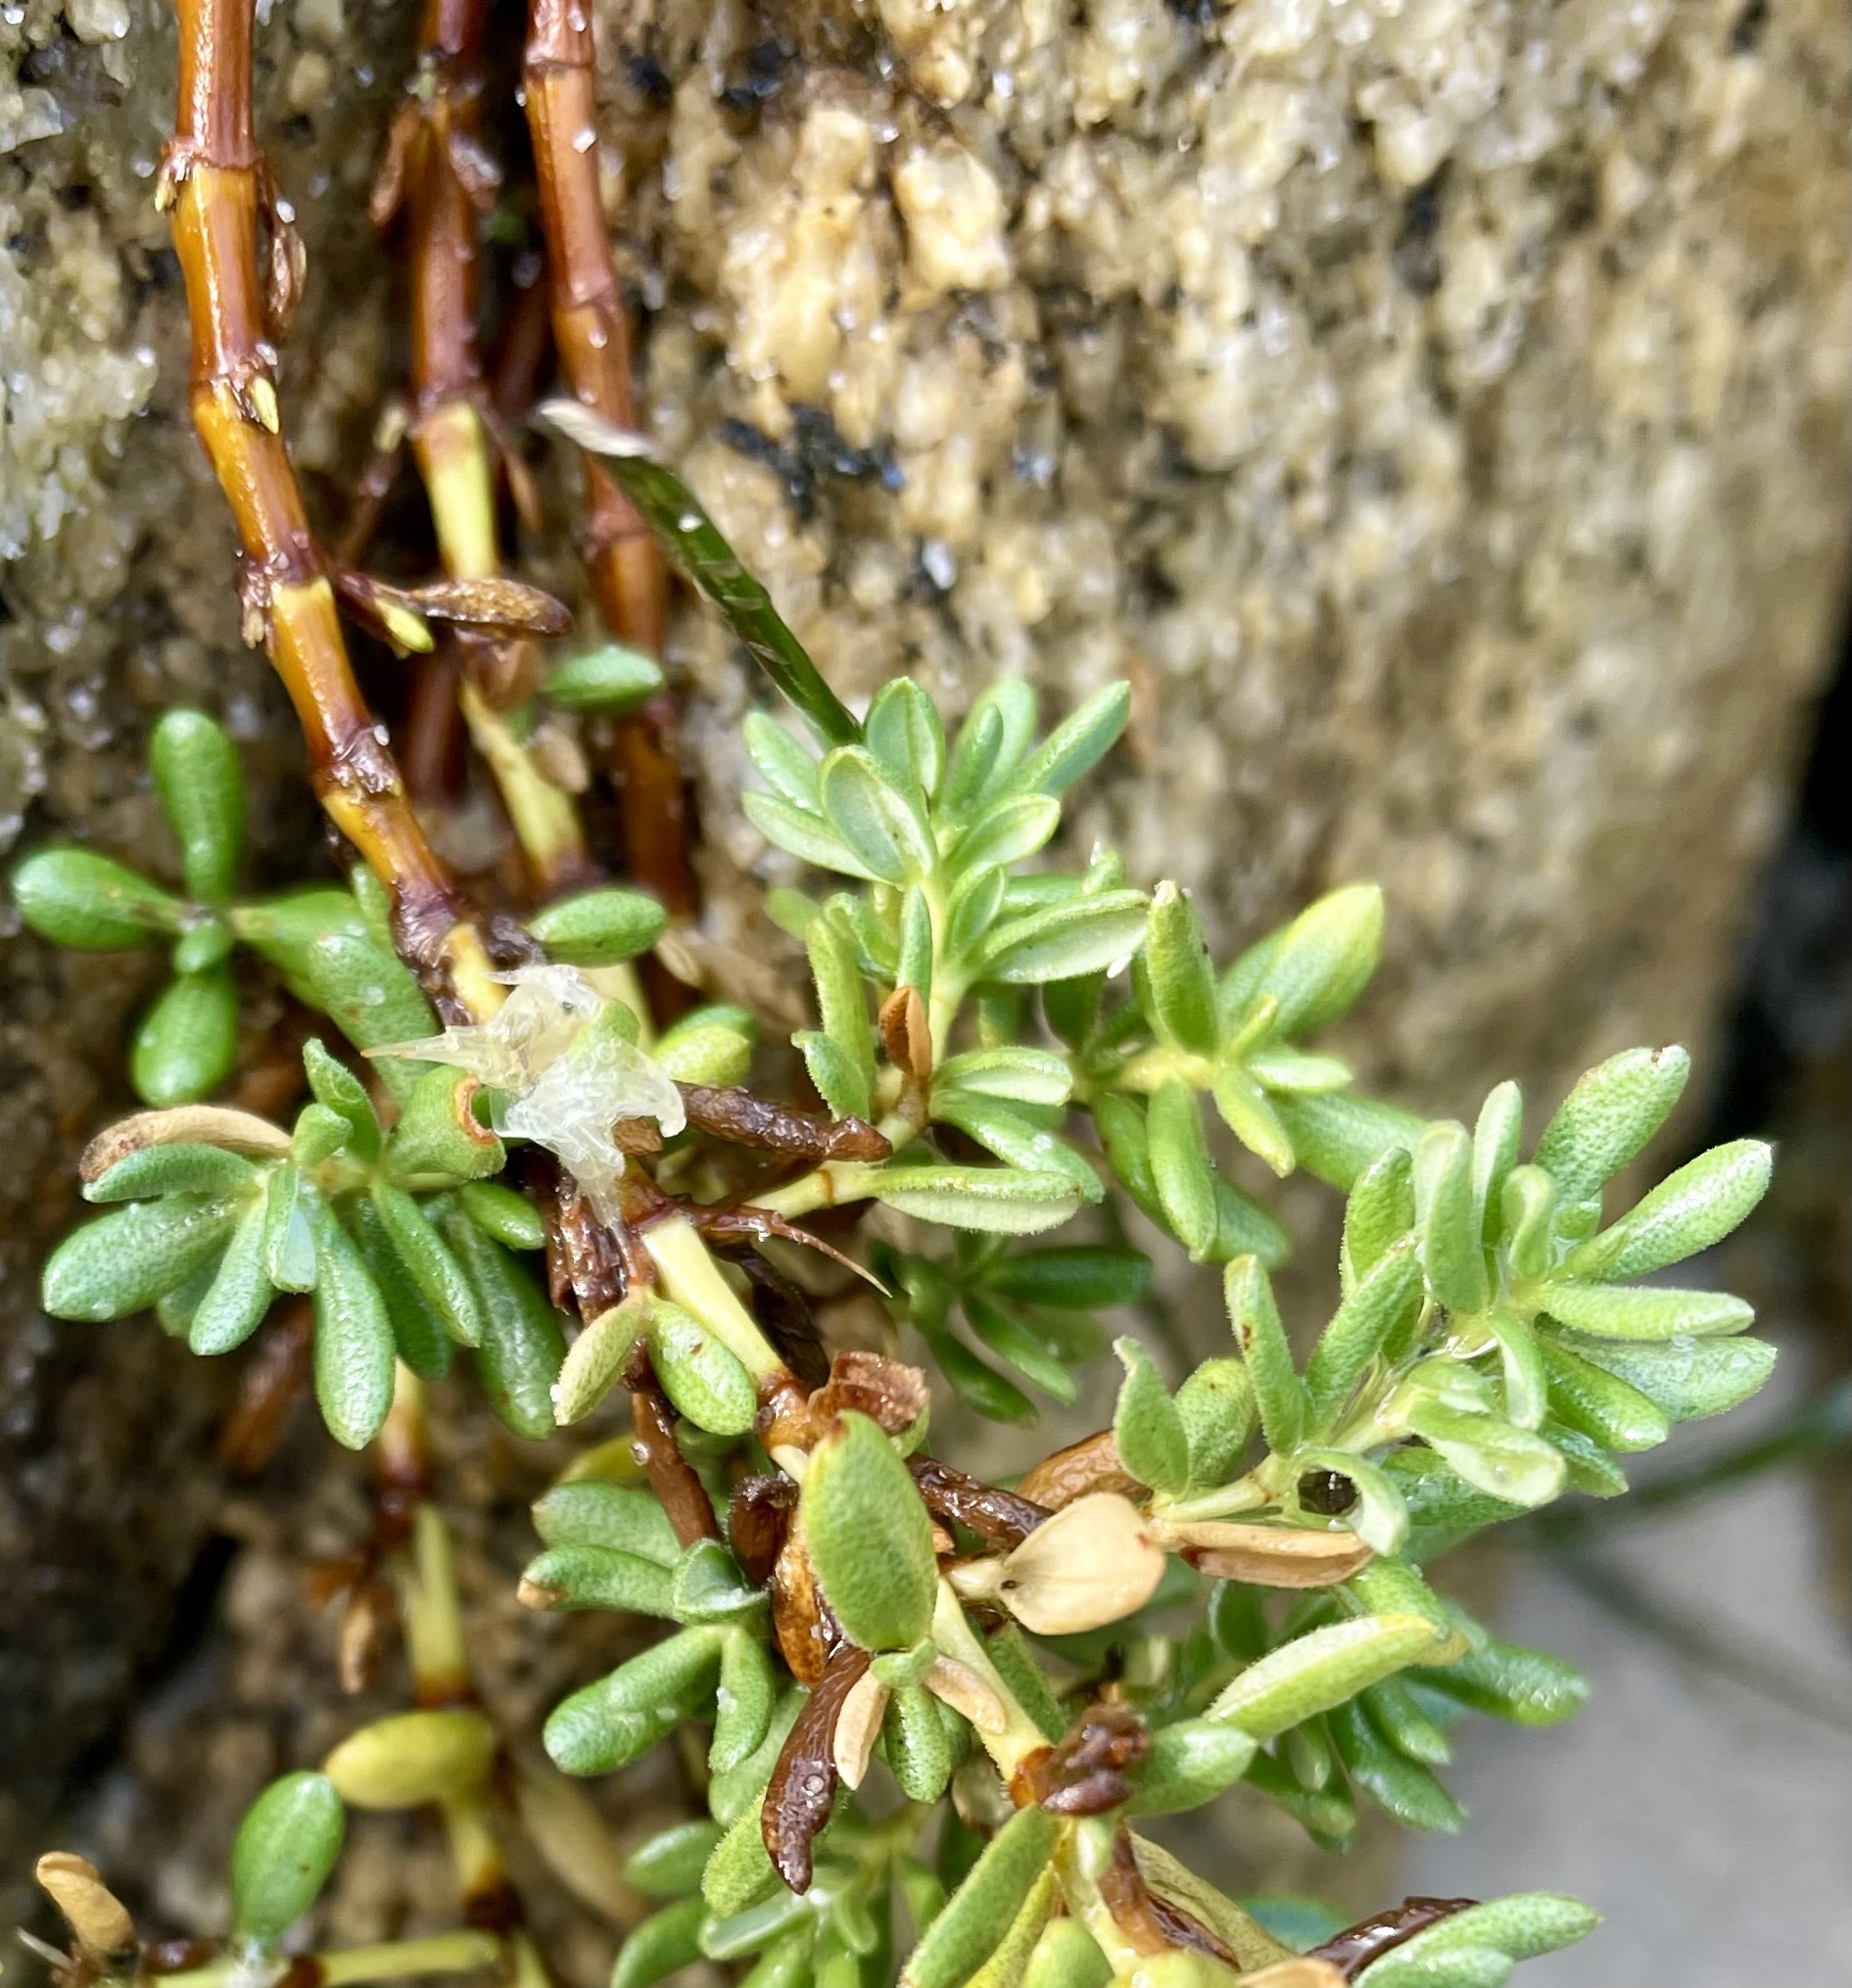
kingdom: Plantae
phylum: Tracheophyta
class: Magnoliopsida
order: Caryophyllales
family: Frankeniaceae
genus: Frankenia
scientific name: Frankenia salina
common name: Alkali seaheath
